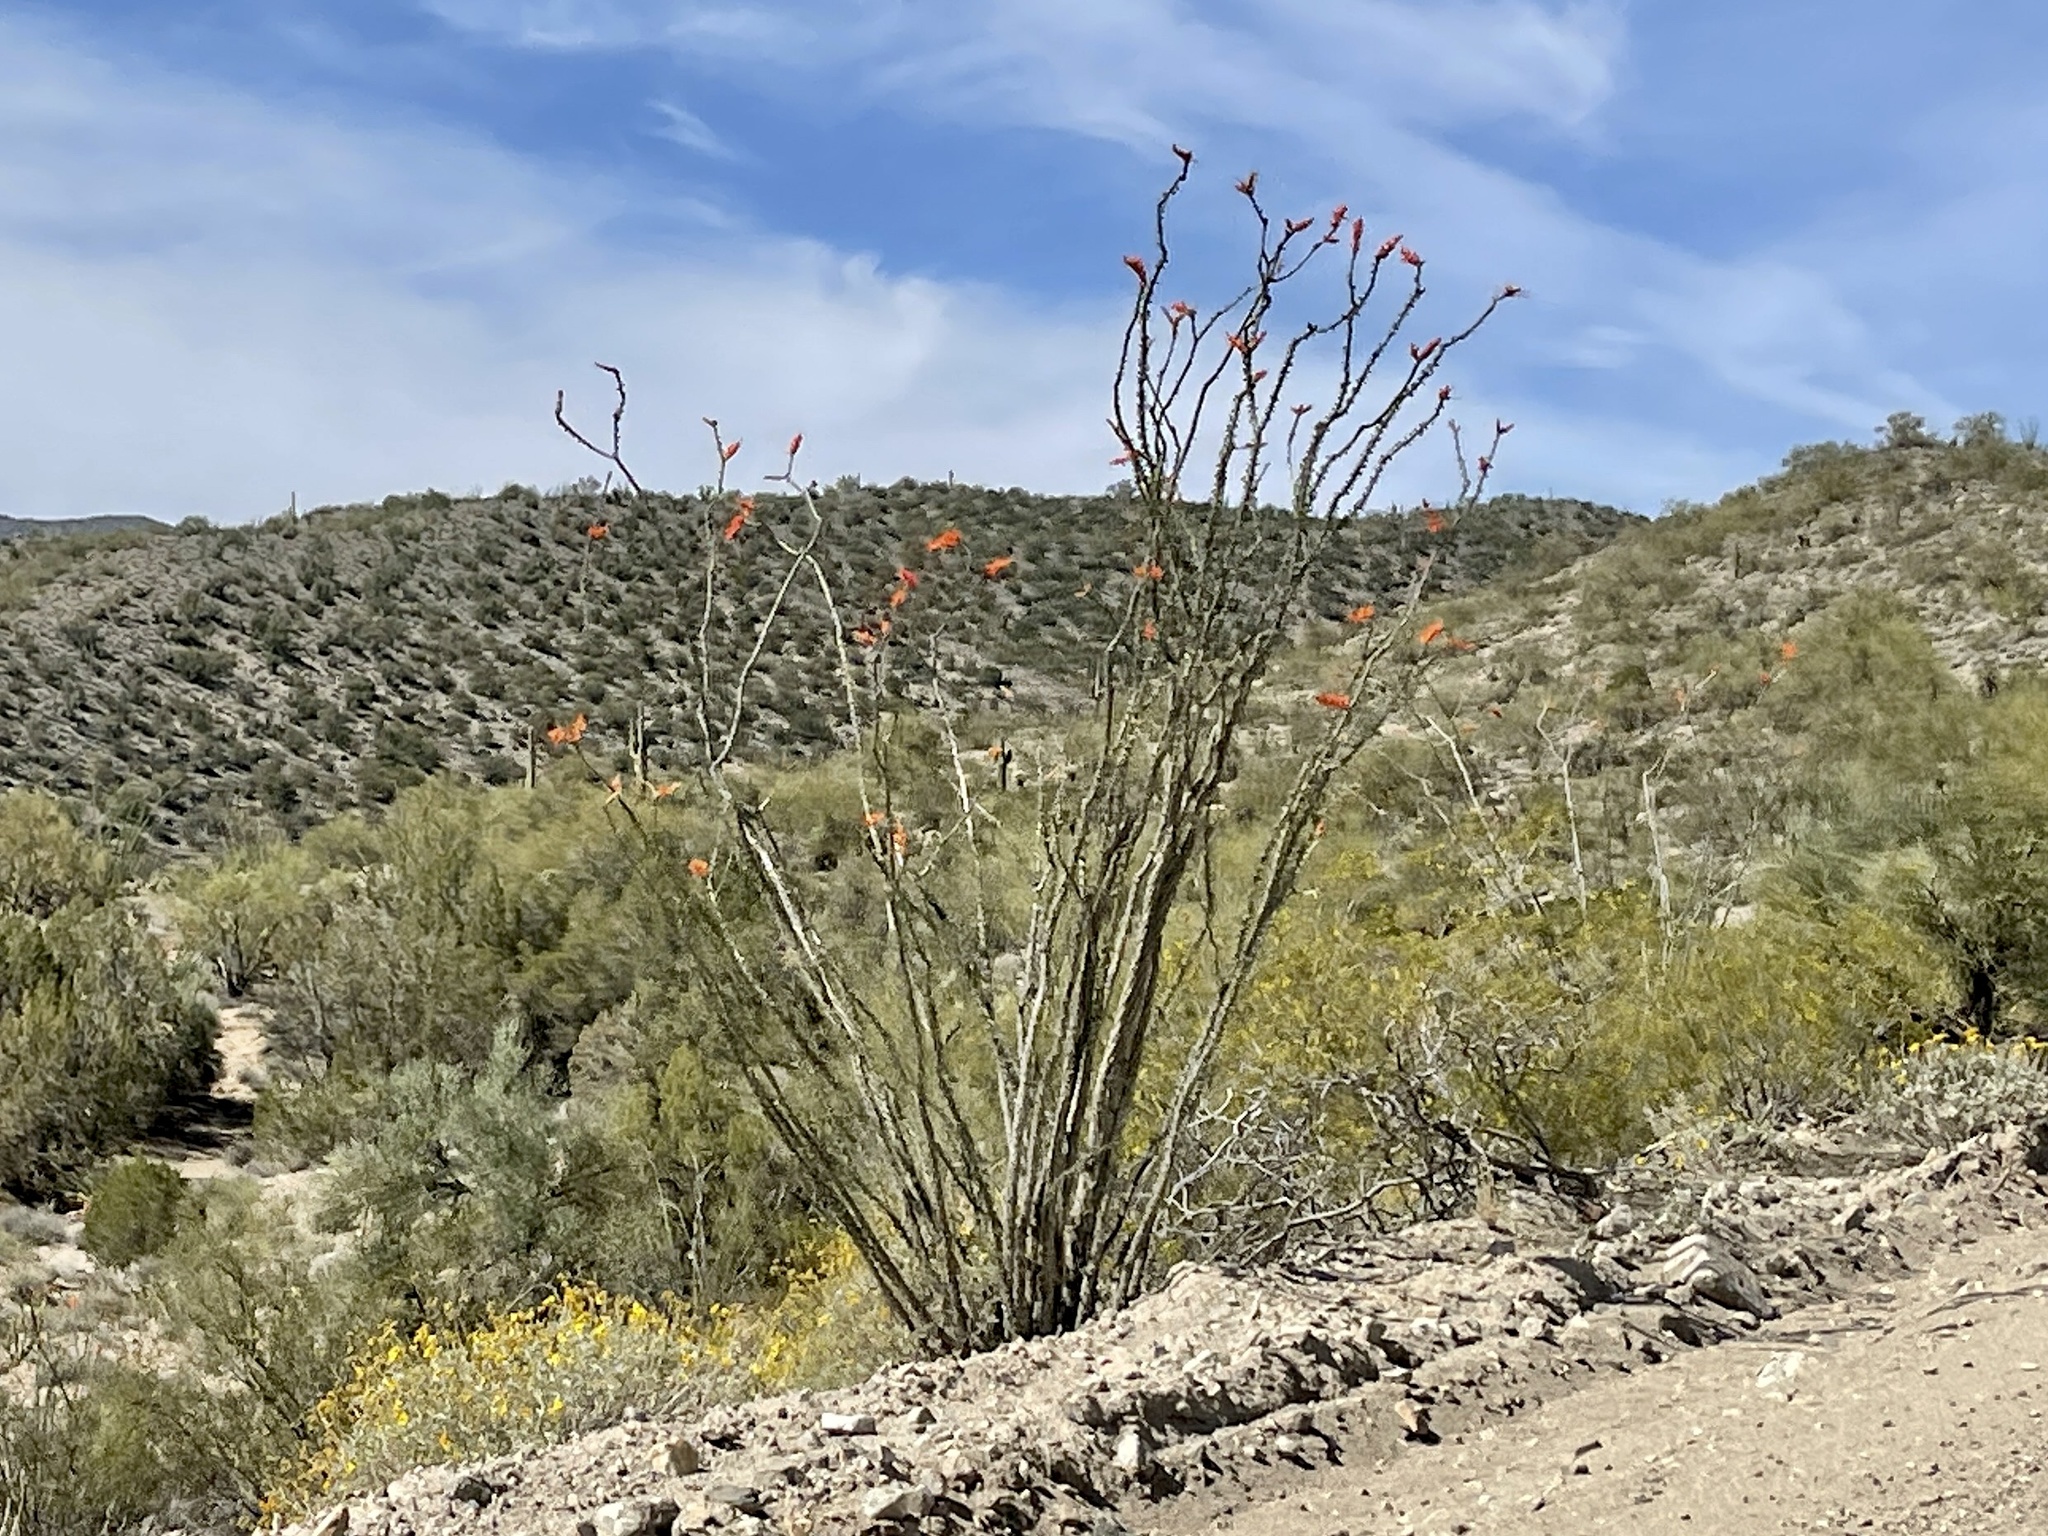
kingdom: Plantae
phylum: Tracheophyta
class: Magnoliopsida
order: Ericales
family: Fouquieriaceae
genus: Fouquieria
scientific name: Fouquieria splendens
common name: Vine-cactus
